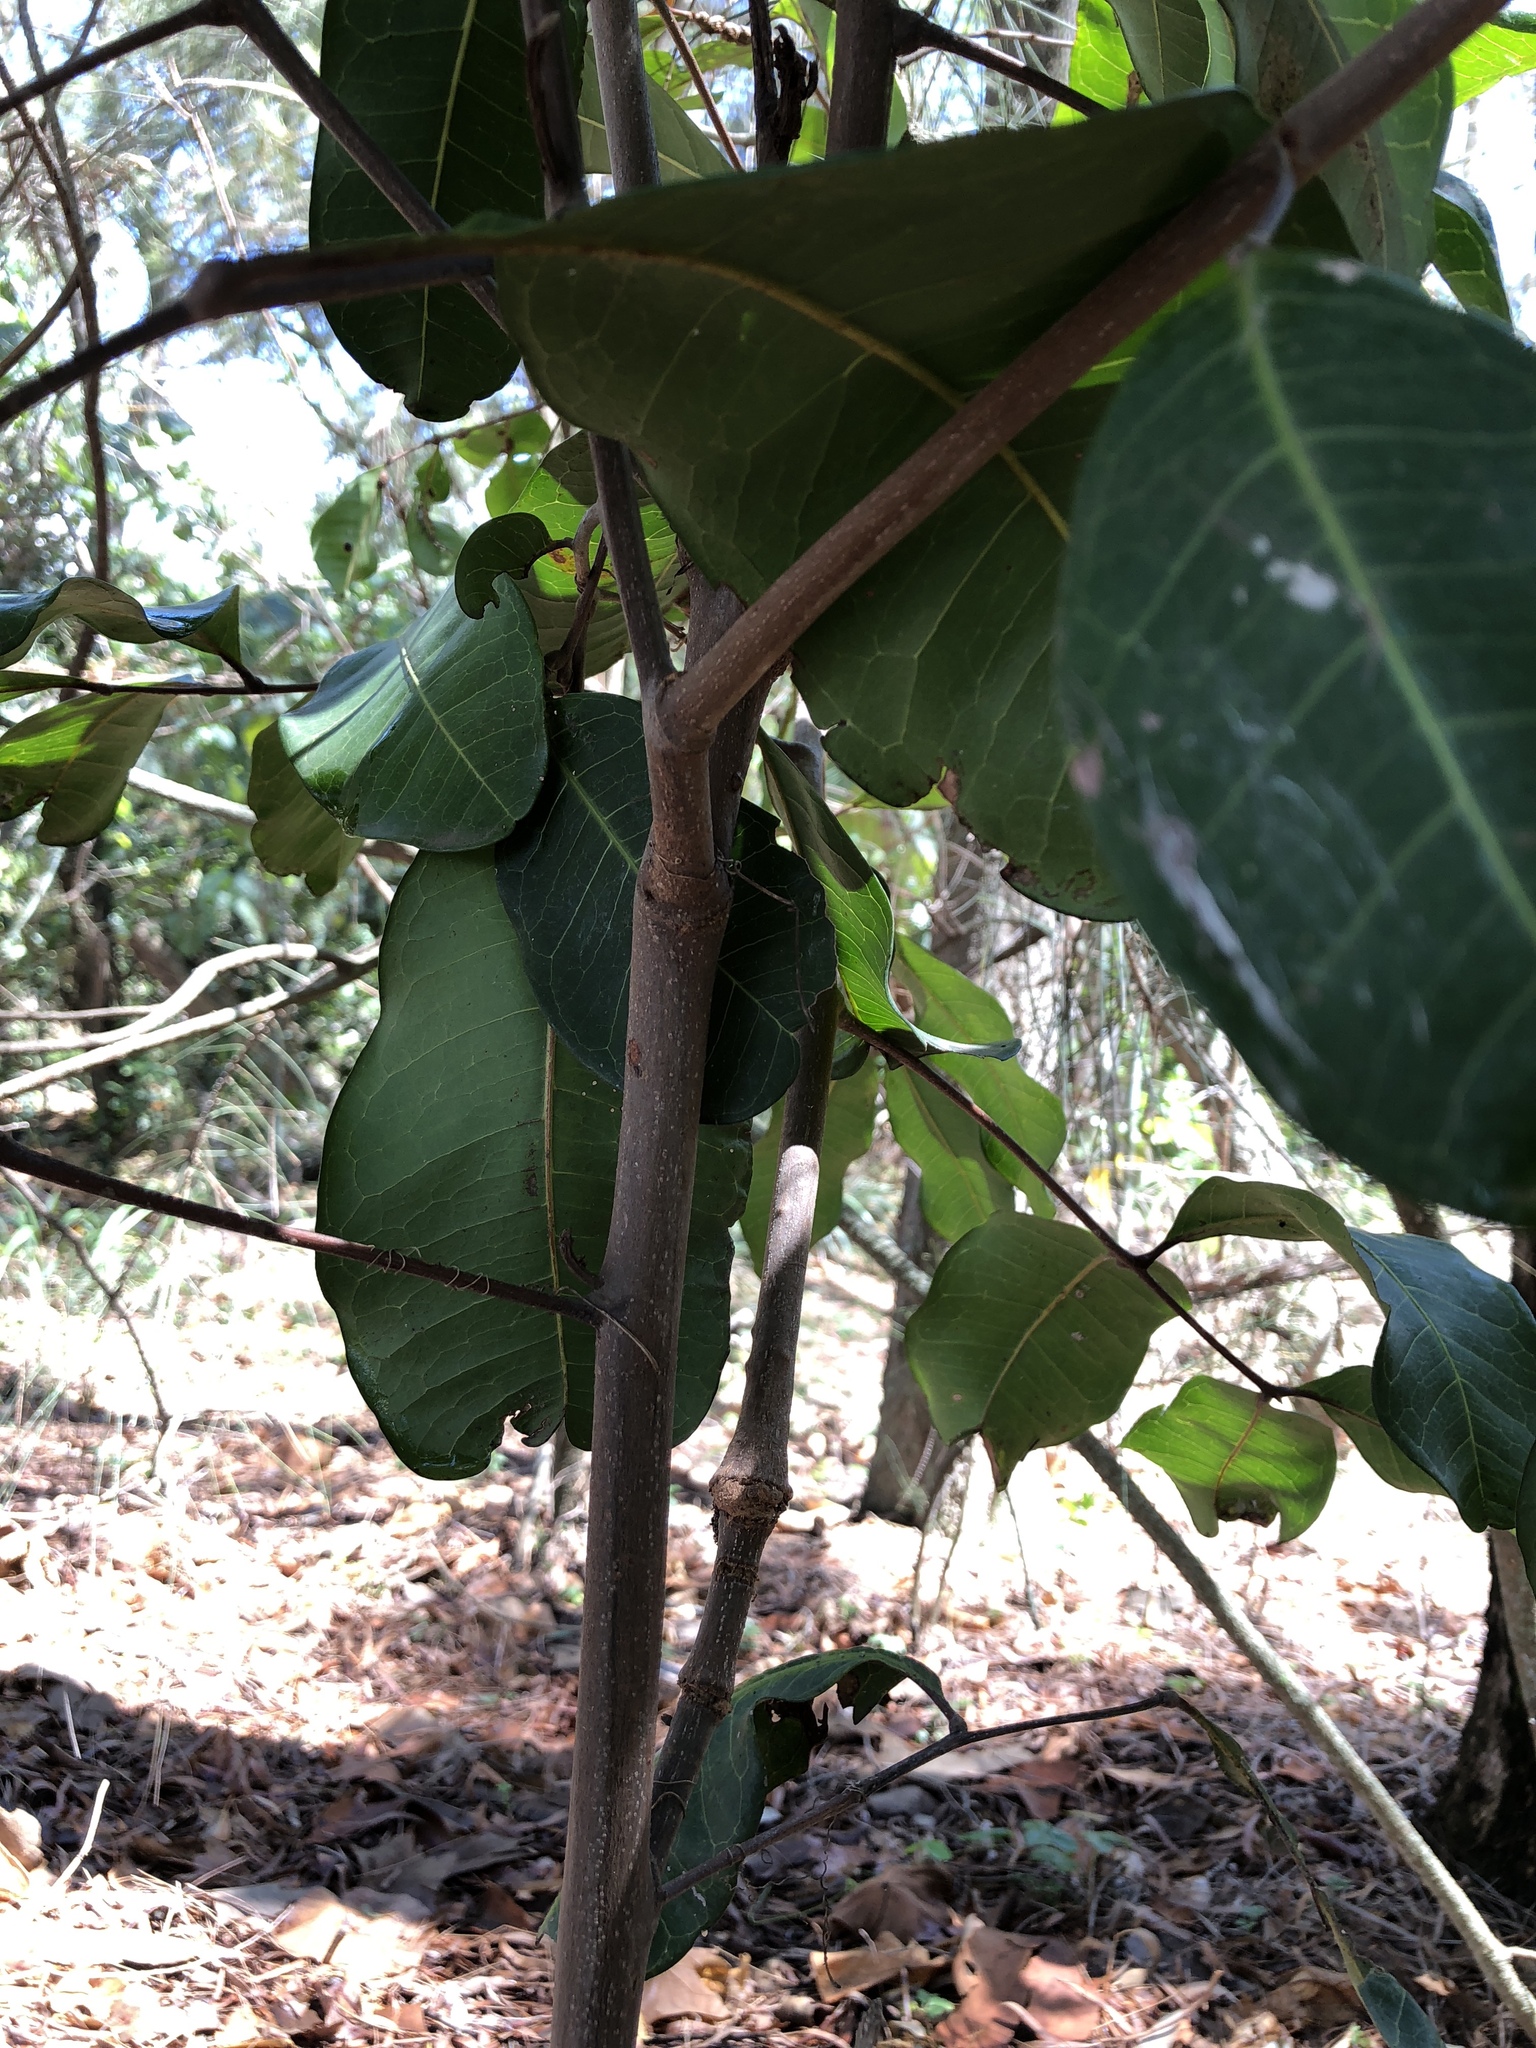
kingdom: Plantae
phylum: Tracheophyta
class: Magnoliopsida
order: Sapindales
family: Sapindaceae
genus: Cupaniopsis
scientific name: Cupaniopsis anacardioides
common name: Carrotwood
